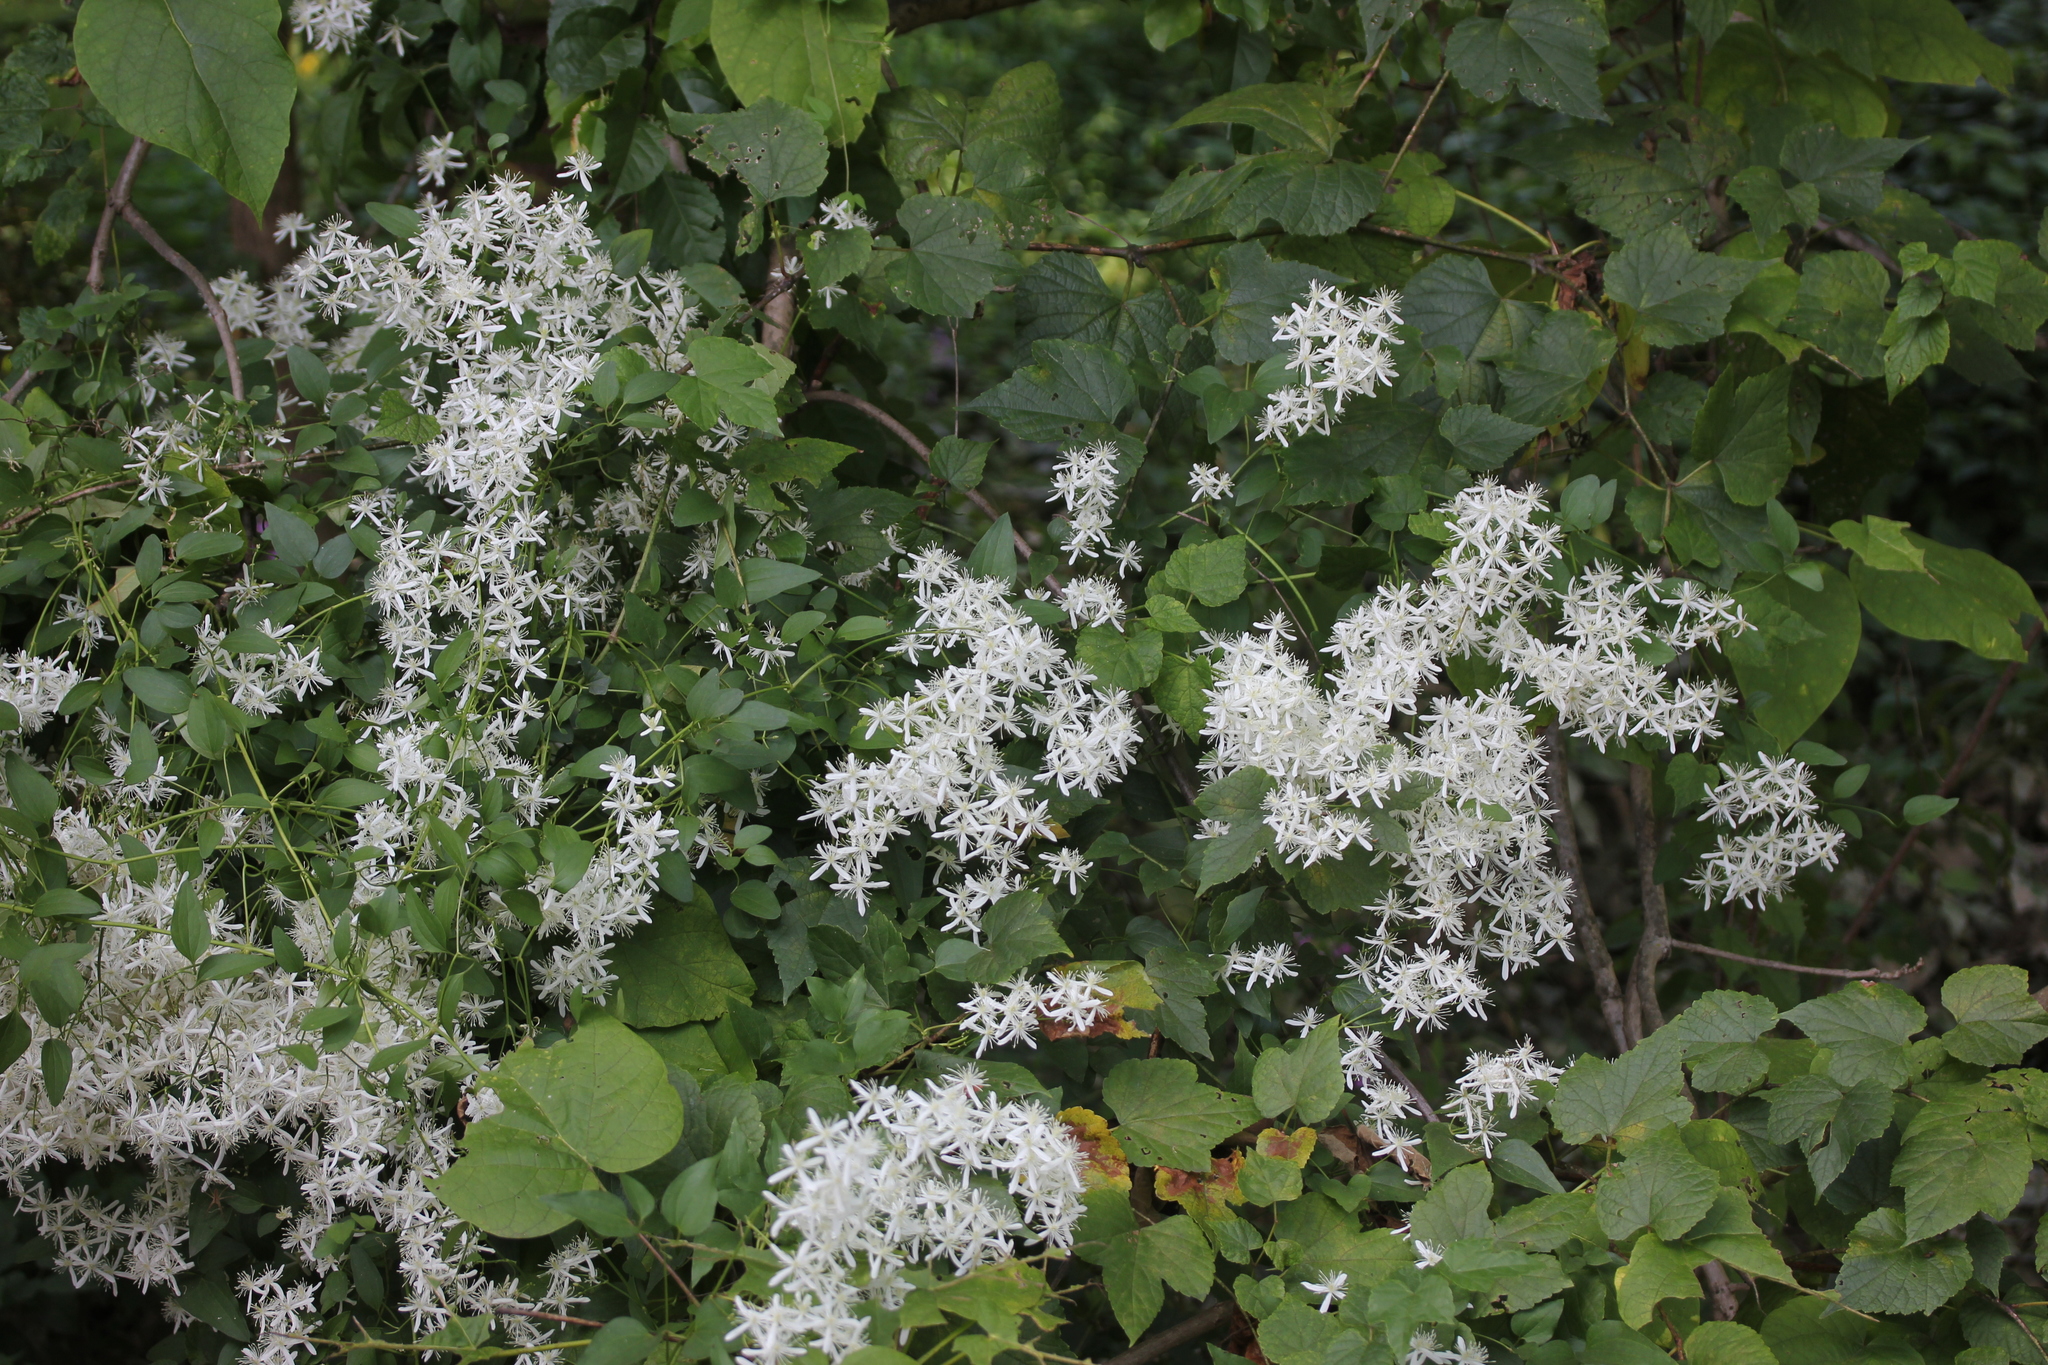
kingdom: Plantae
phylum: Tracheophyta
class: Magnoliopsida
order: Ranunculales
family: Ranunculaceae
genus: Clematis
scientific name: Clematis terniflora
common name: Sweet autumn clematis
